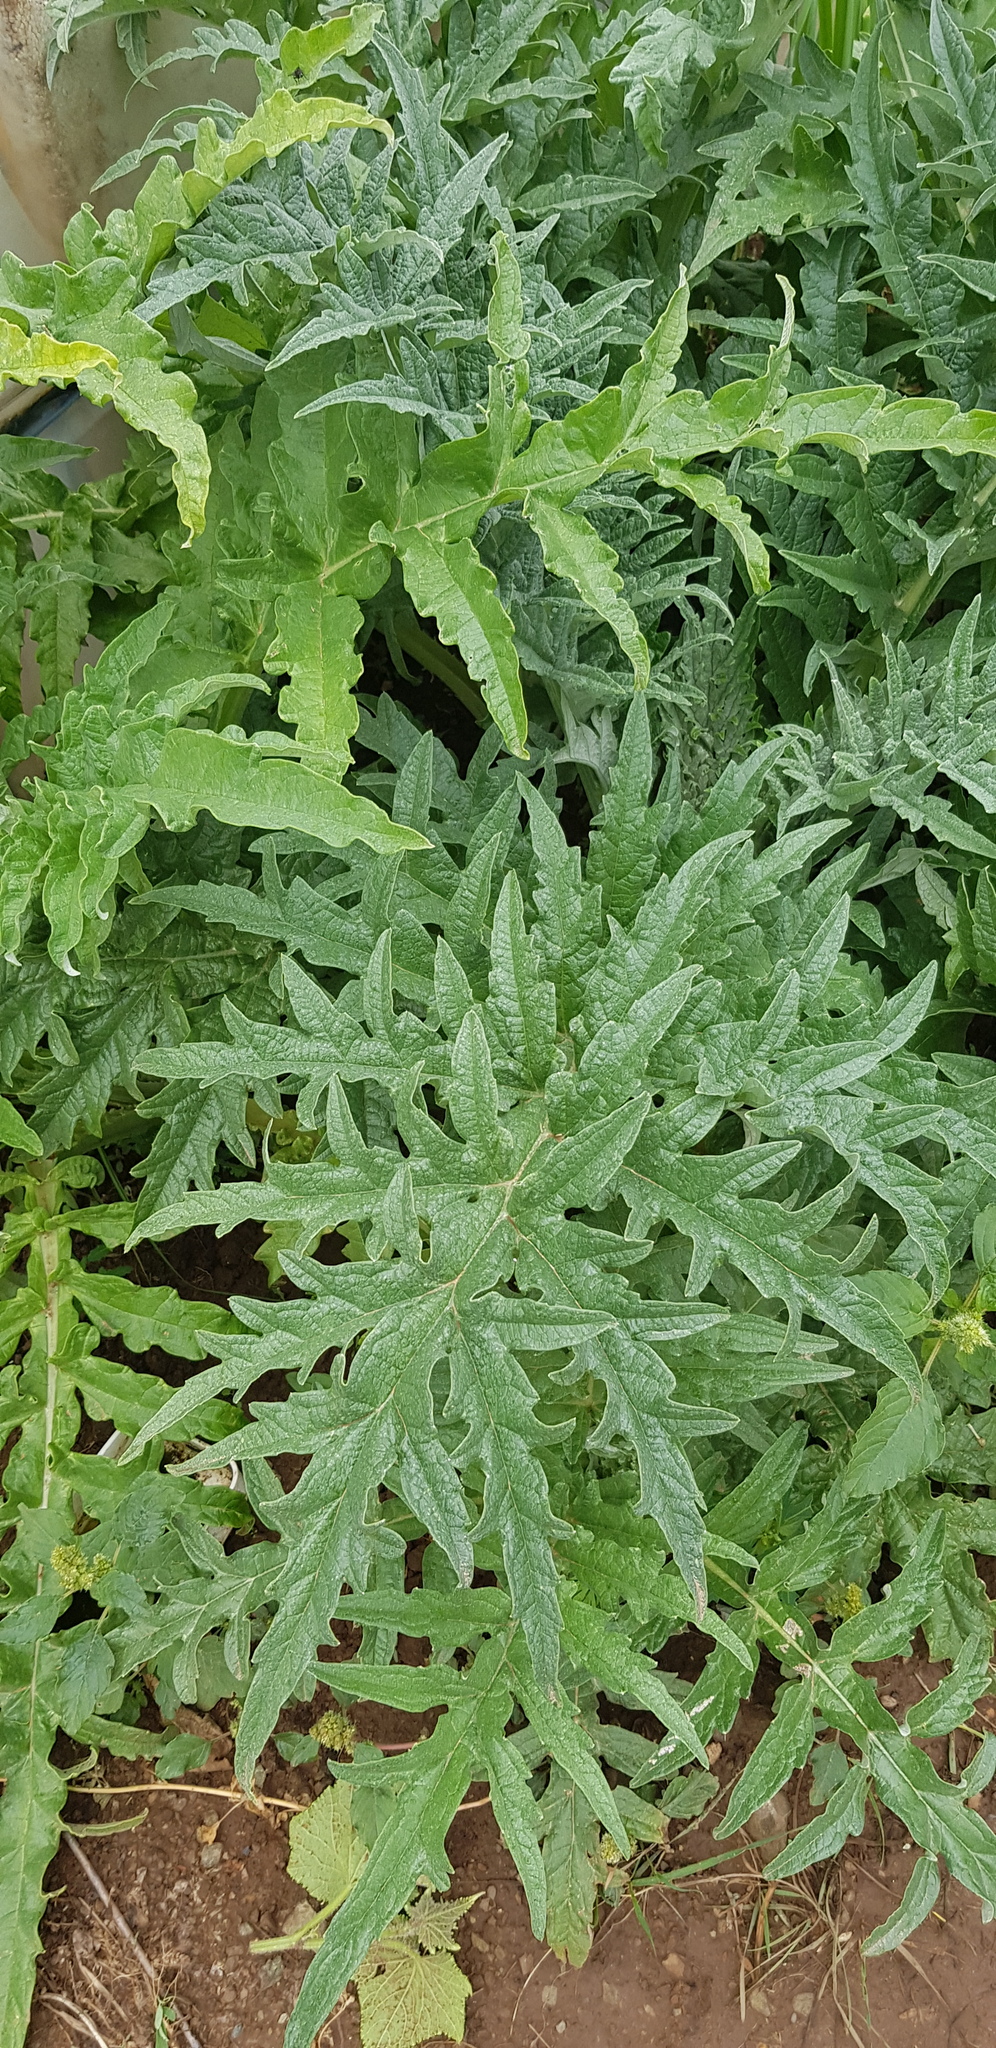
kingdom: Plantae
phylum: Tracheophyta
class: Magnoliopsida
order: Rosales
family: Urticaceae
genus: Urtica
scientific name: Urtica cannabina
